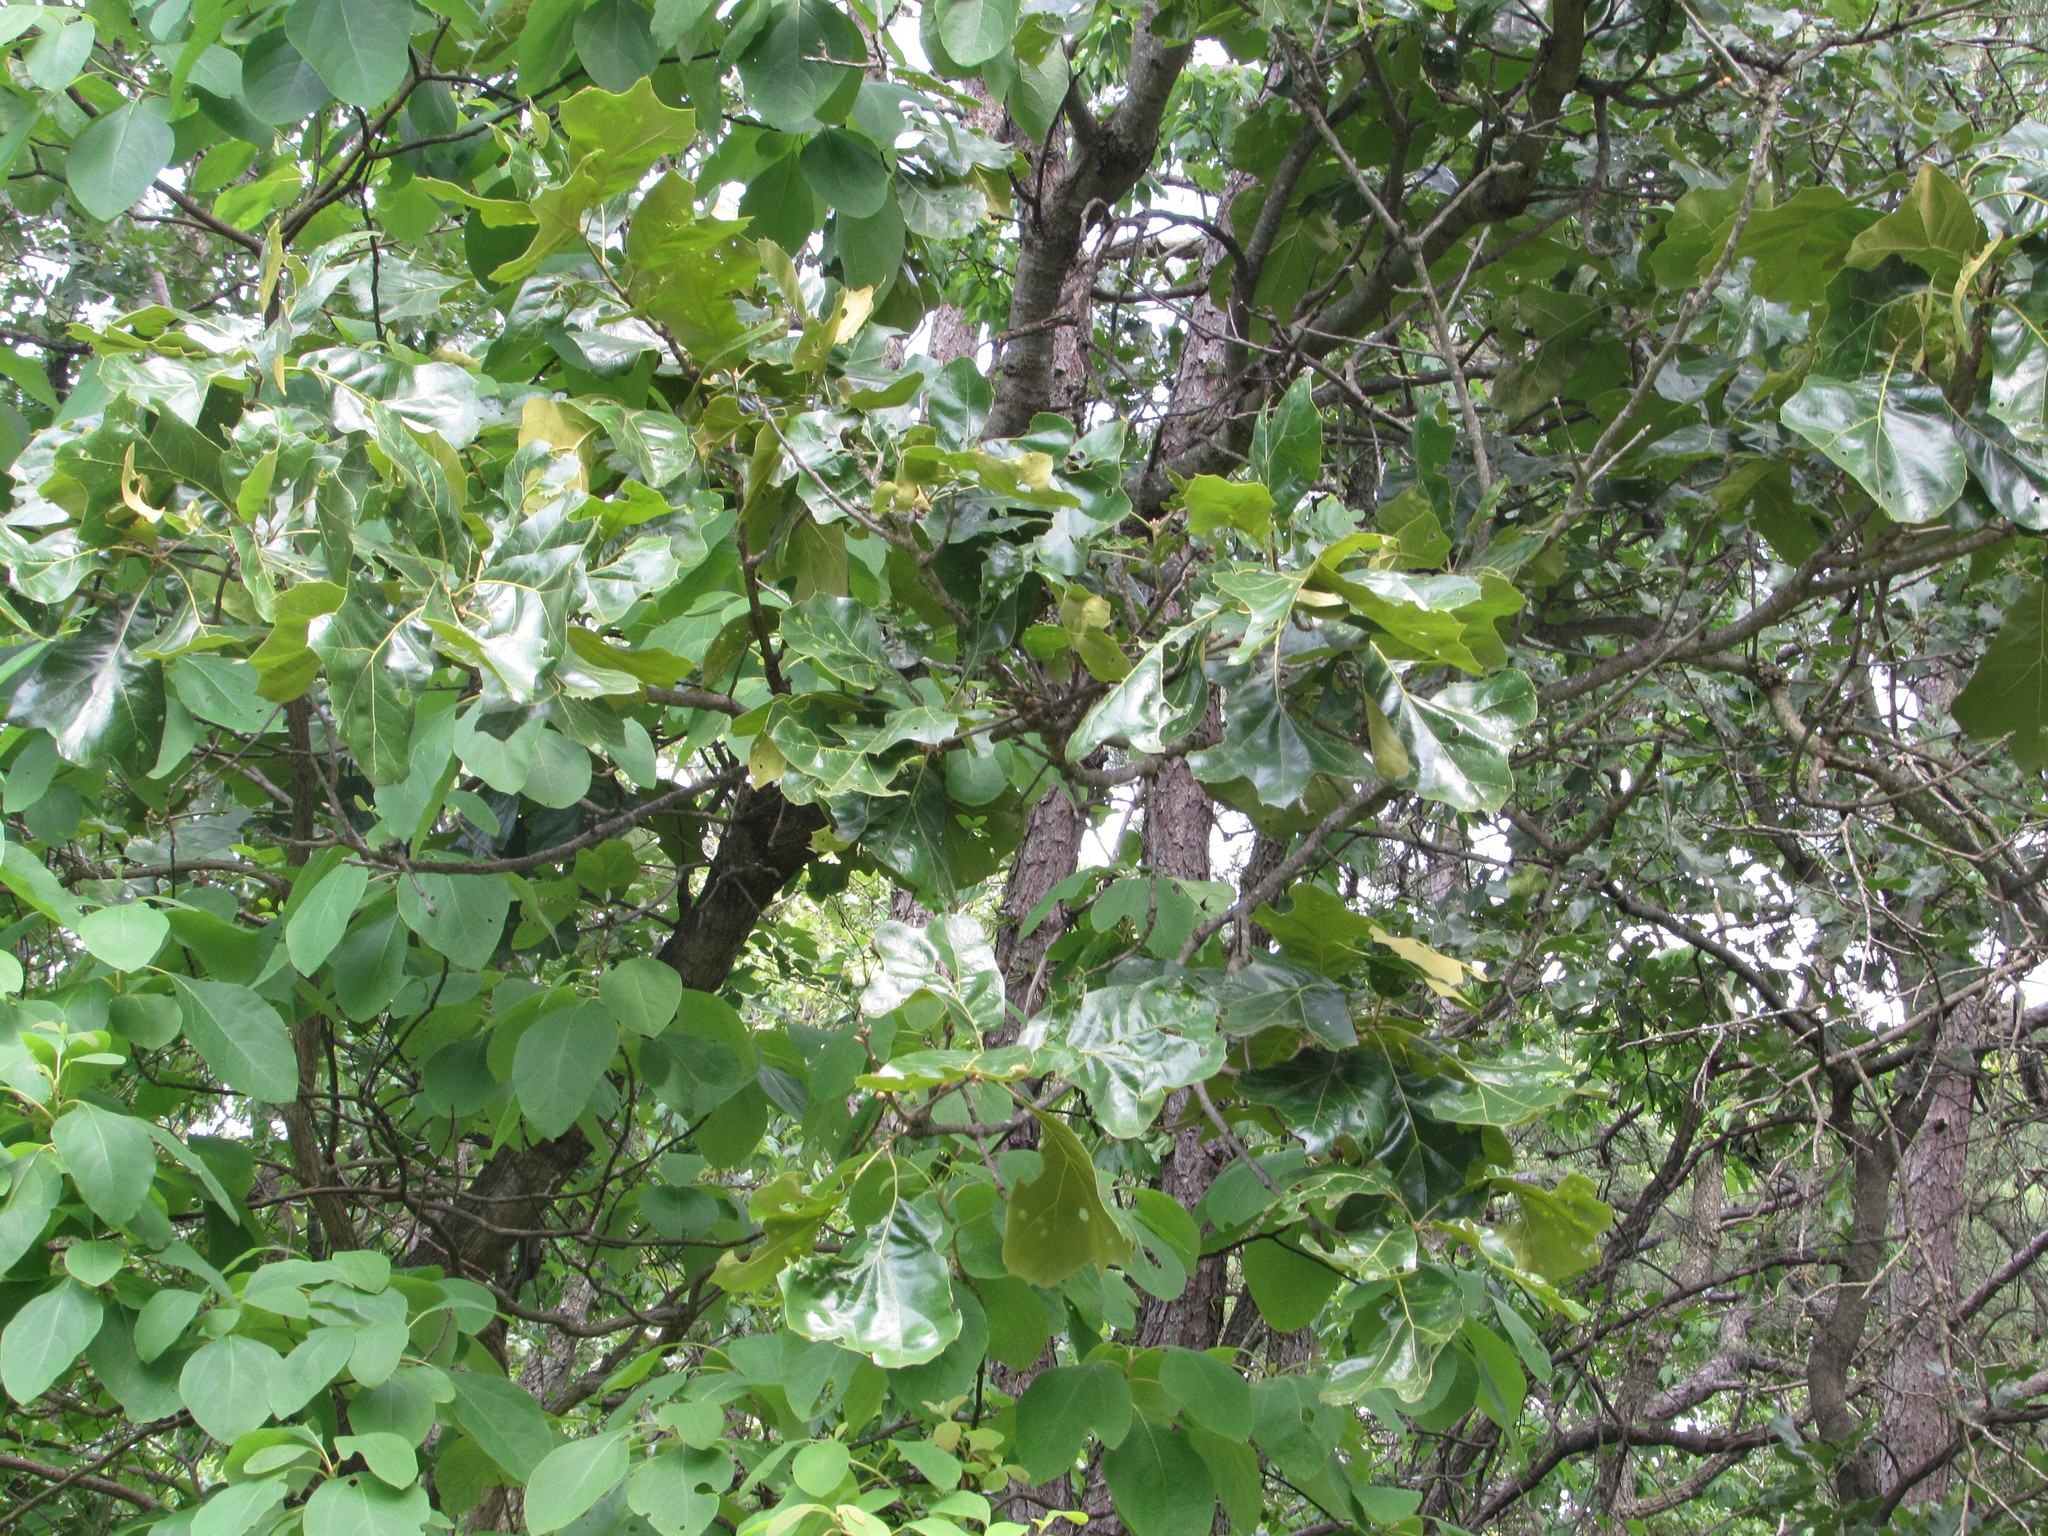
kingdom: Plantae
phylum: Tracheophyta
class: Magnoliopsida
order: Fagales
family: Fagaceae
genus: Quercus
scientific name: Quercus marilandica
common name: Blackjack oak
